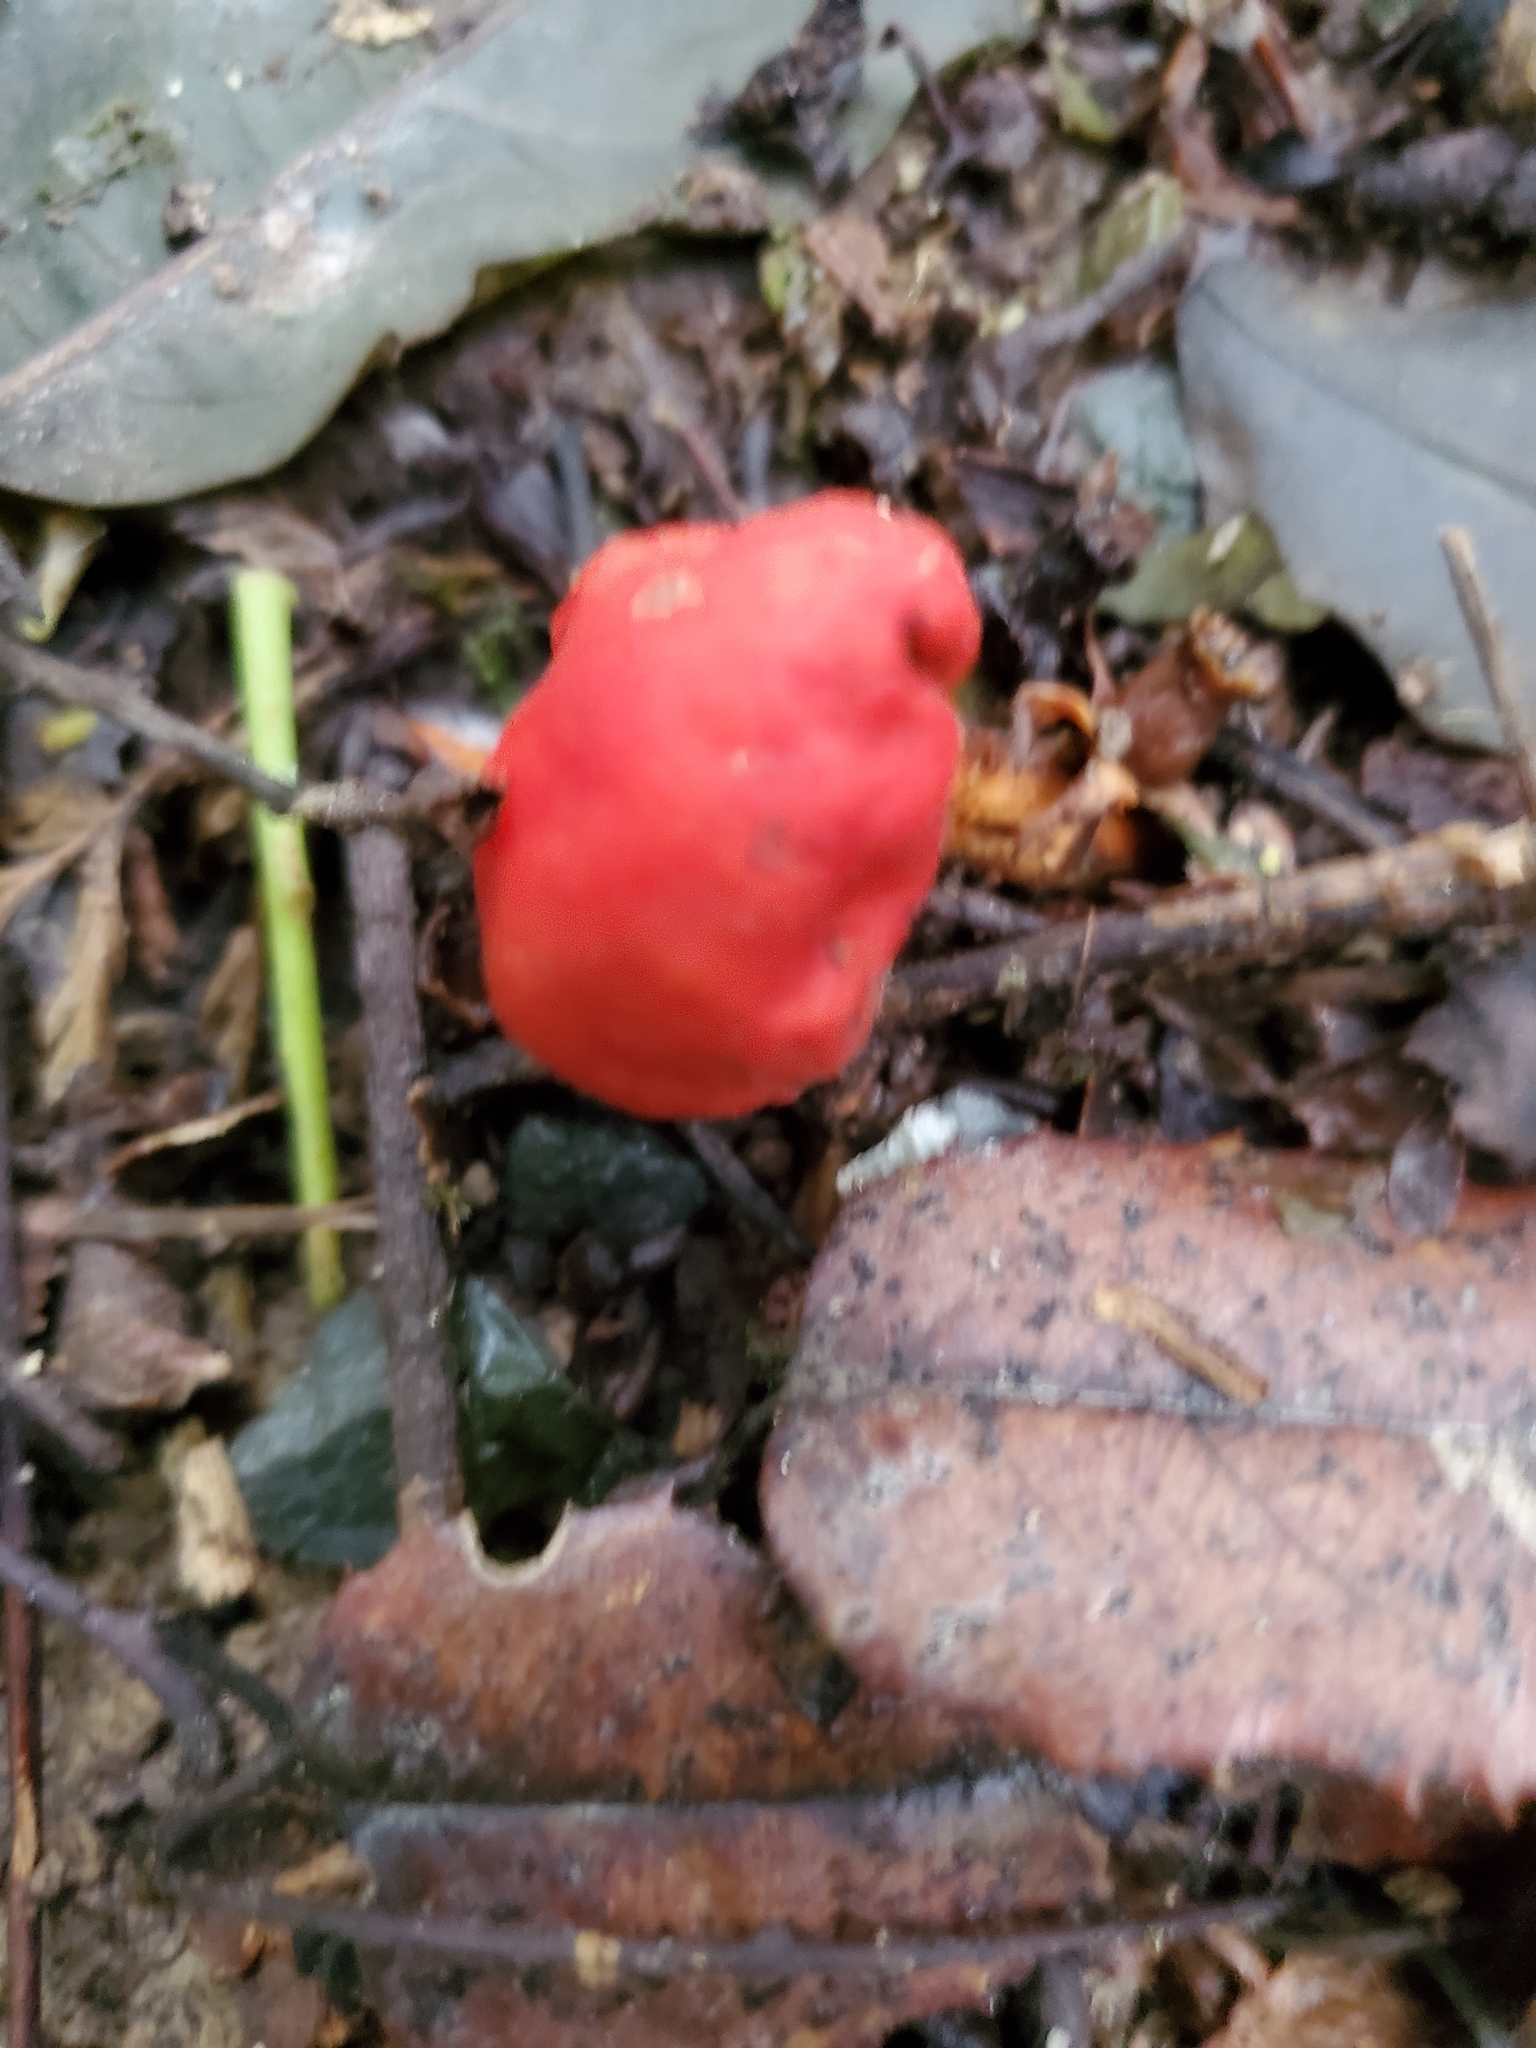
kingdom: Fungi
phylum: Basidiomycota
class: Agaricomycetes
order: Agaricales
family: Strophariaceae
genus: Leratiomyces
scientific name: Leratiomyces erythrocephalus
